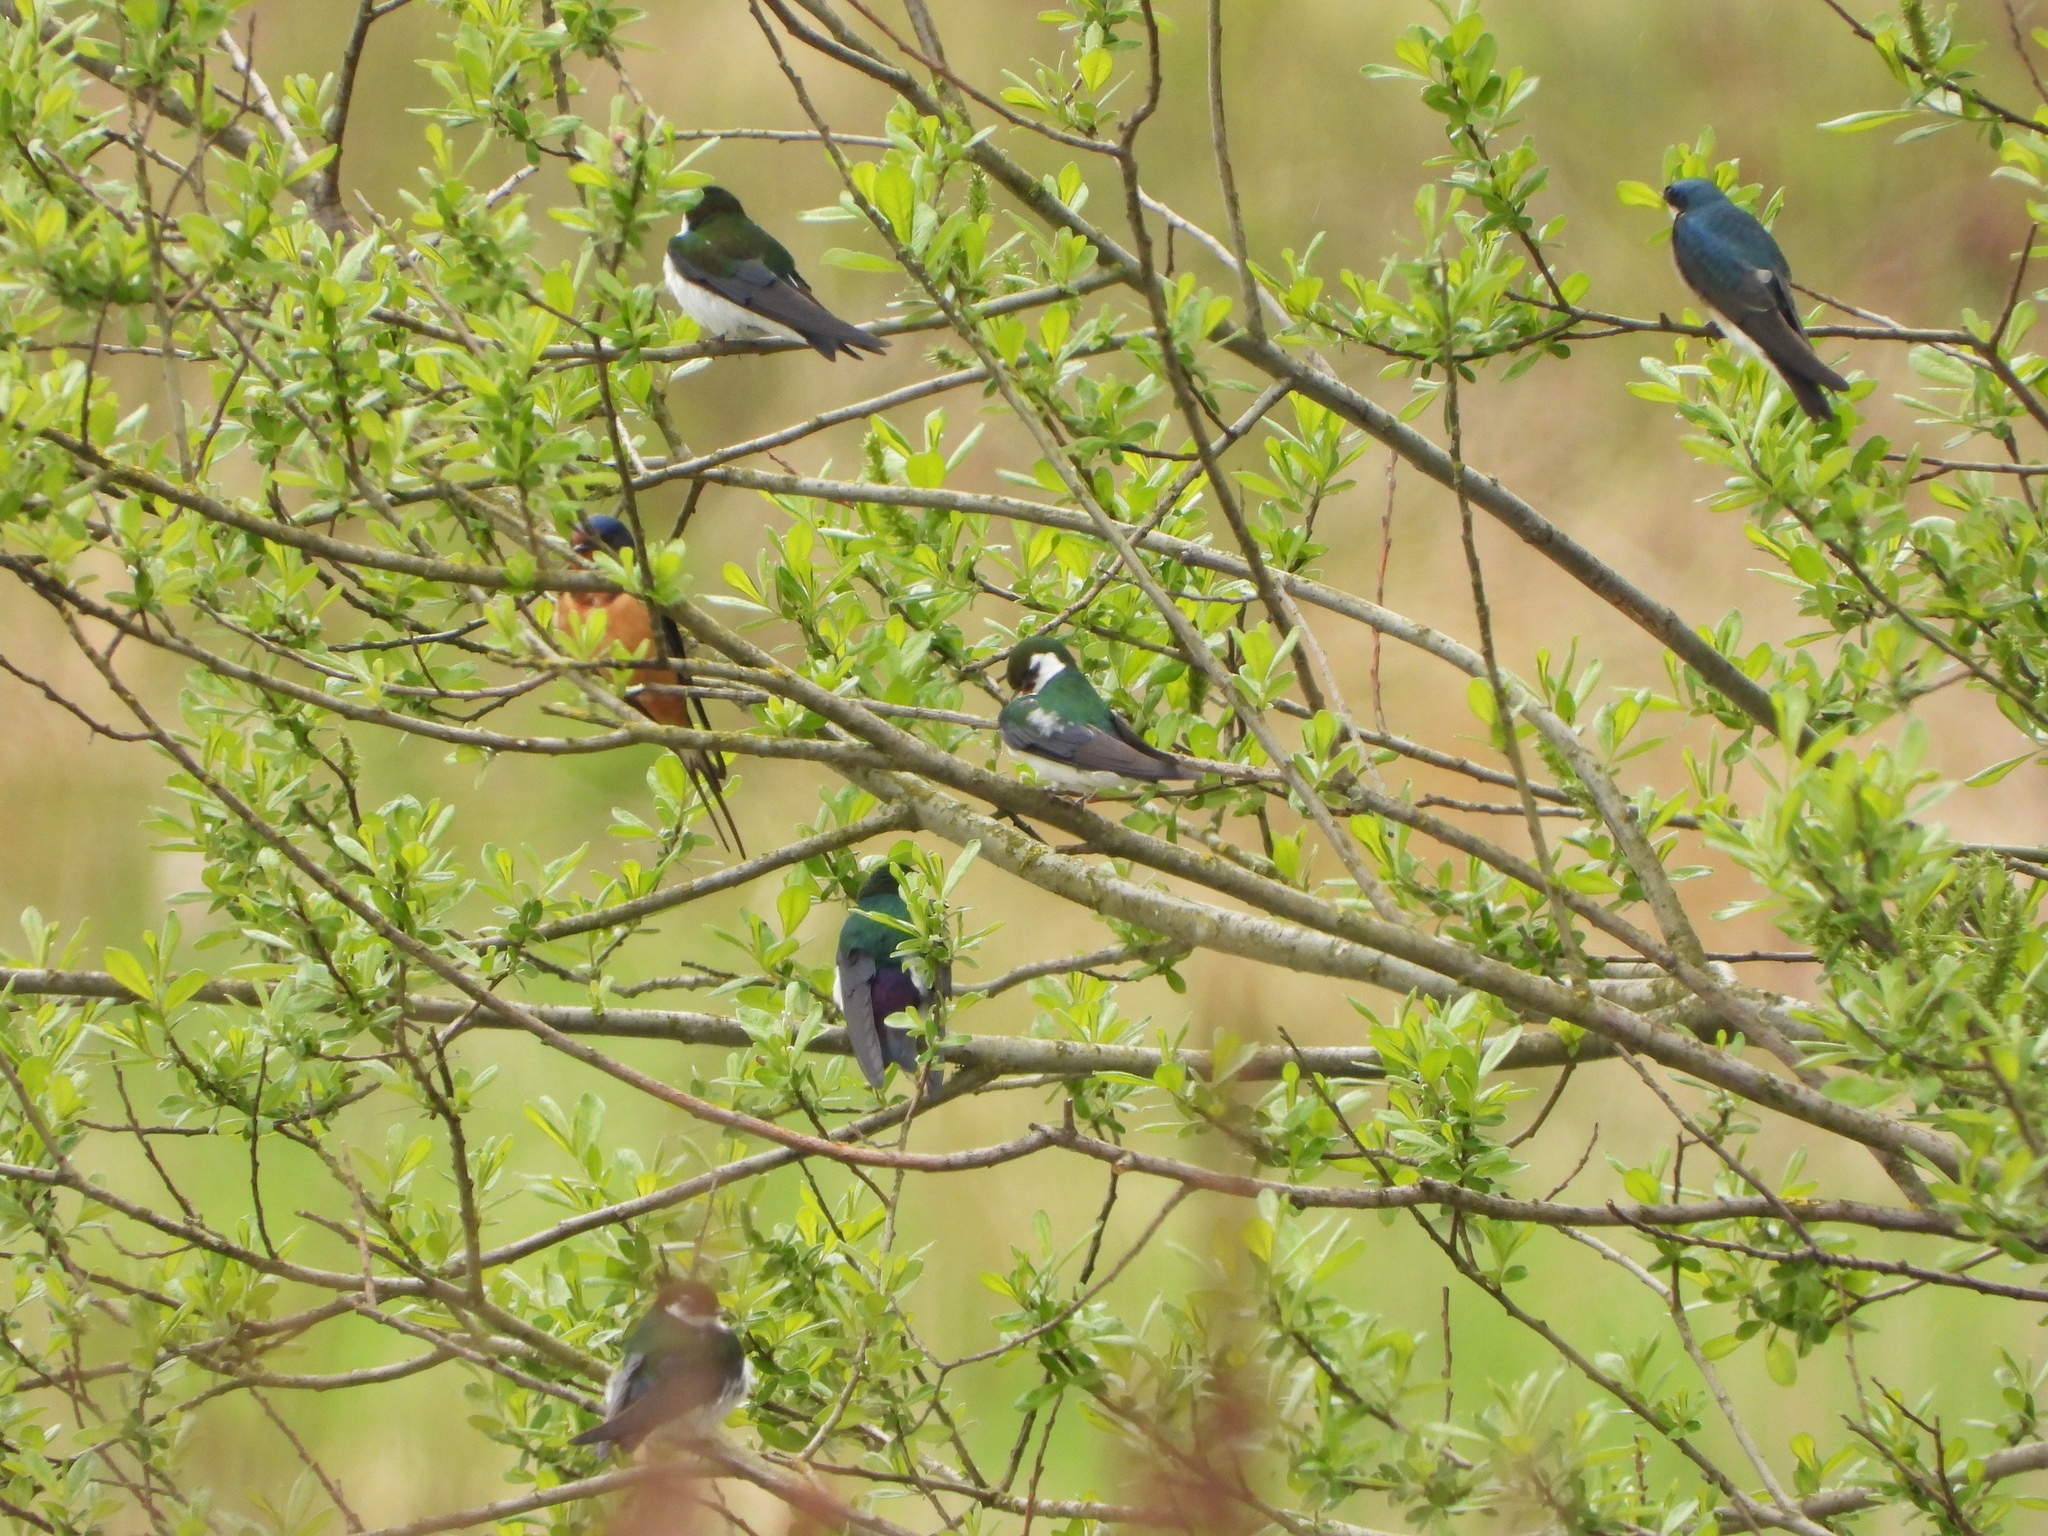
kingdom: Animalia
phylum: Chordata
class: Aves
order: Passeriformes
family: Hirundinidae
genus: Tachycineta
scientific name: Tachycineta bicolor
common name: Tree swallow
